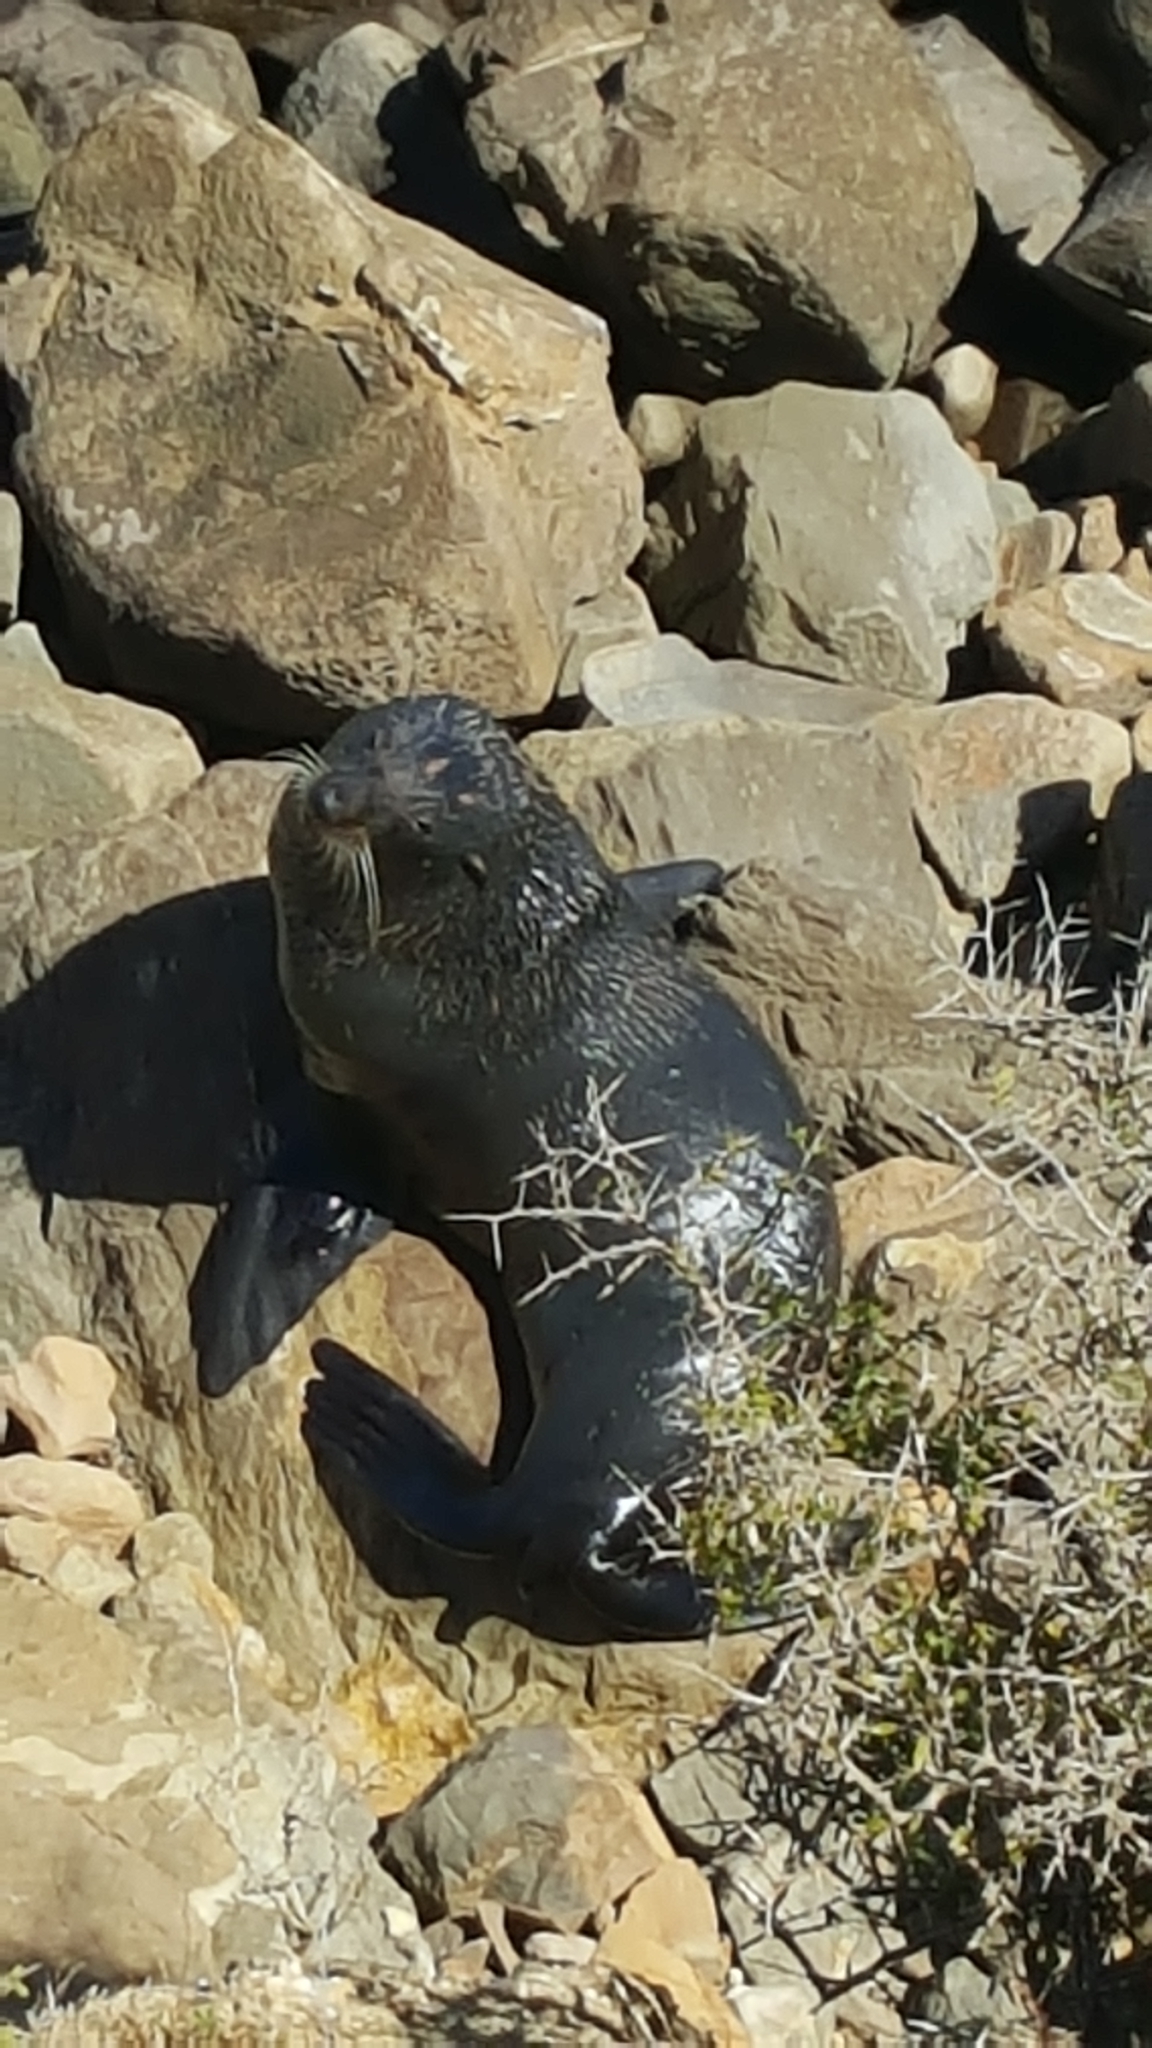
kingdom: Animalia
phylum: Chordata
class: Mammalia
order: Carnivora
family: Otariidae
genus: Arctocephalus
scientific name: Arctocephalus forsteri
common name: New zealand fur seal
